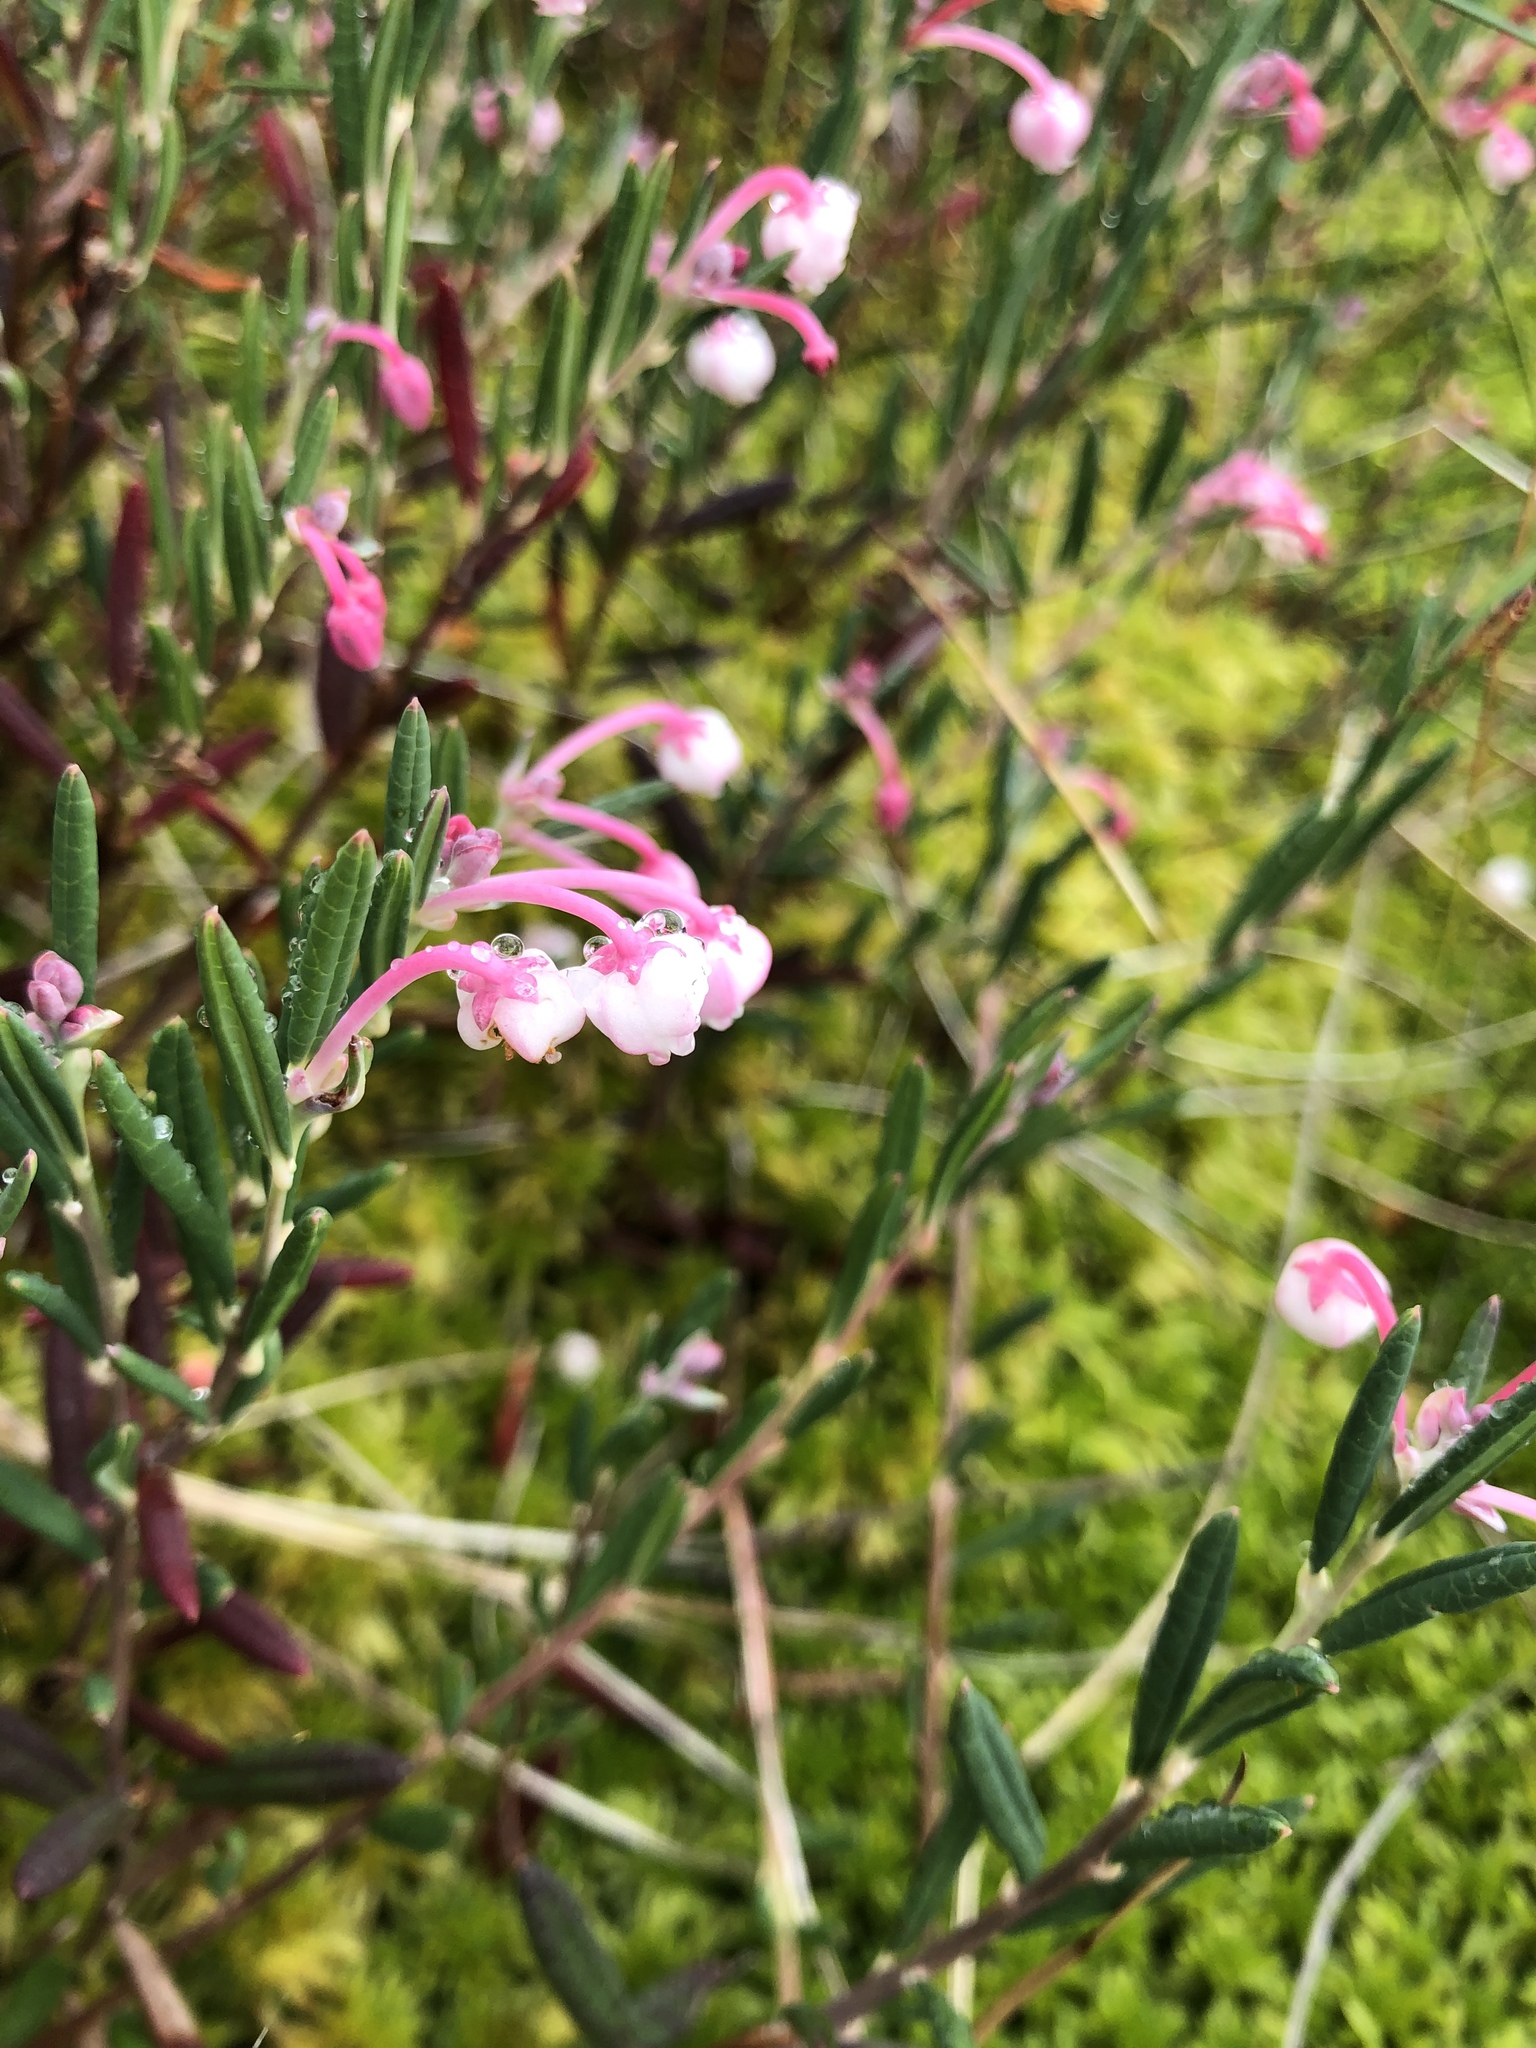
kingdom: Plantae
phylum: Tracheophyta
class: Magnoliopsida
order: Ericales
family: Ericaceae
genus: Andromeda
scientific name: Andromeda polifolia
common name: Bog-rosemary
